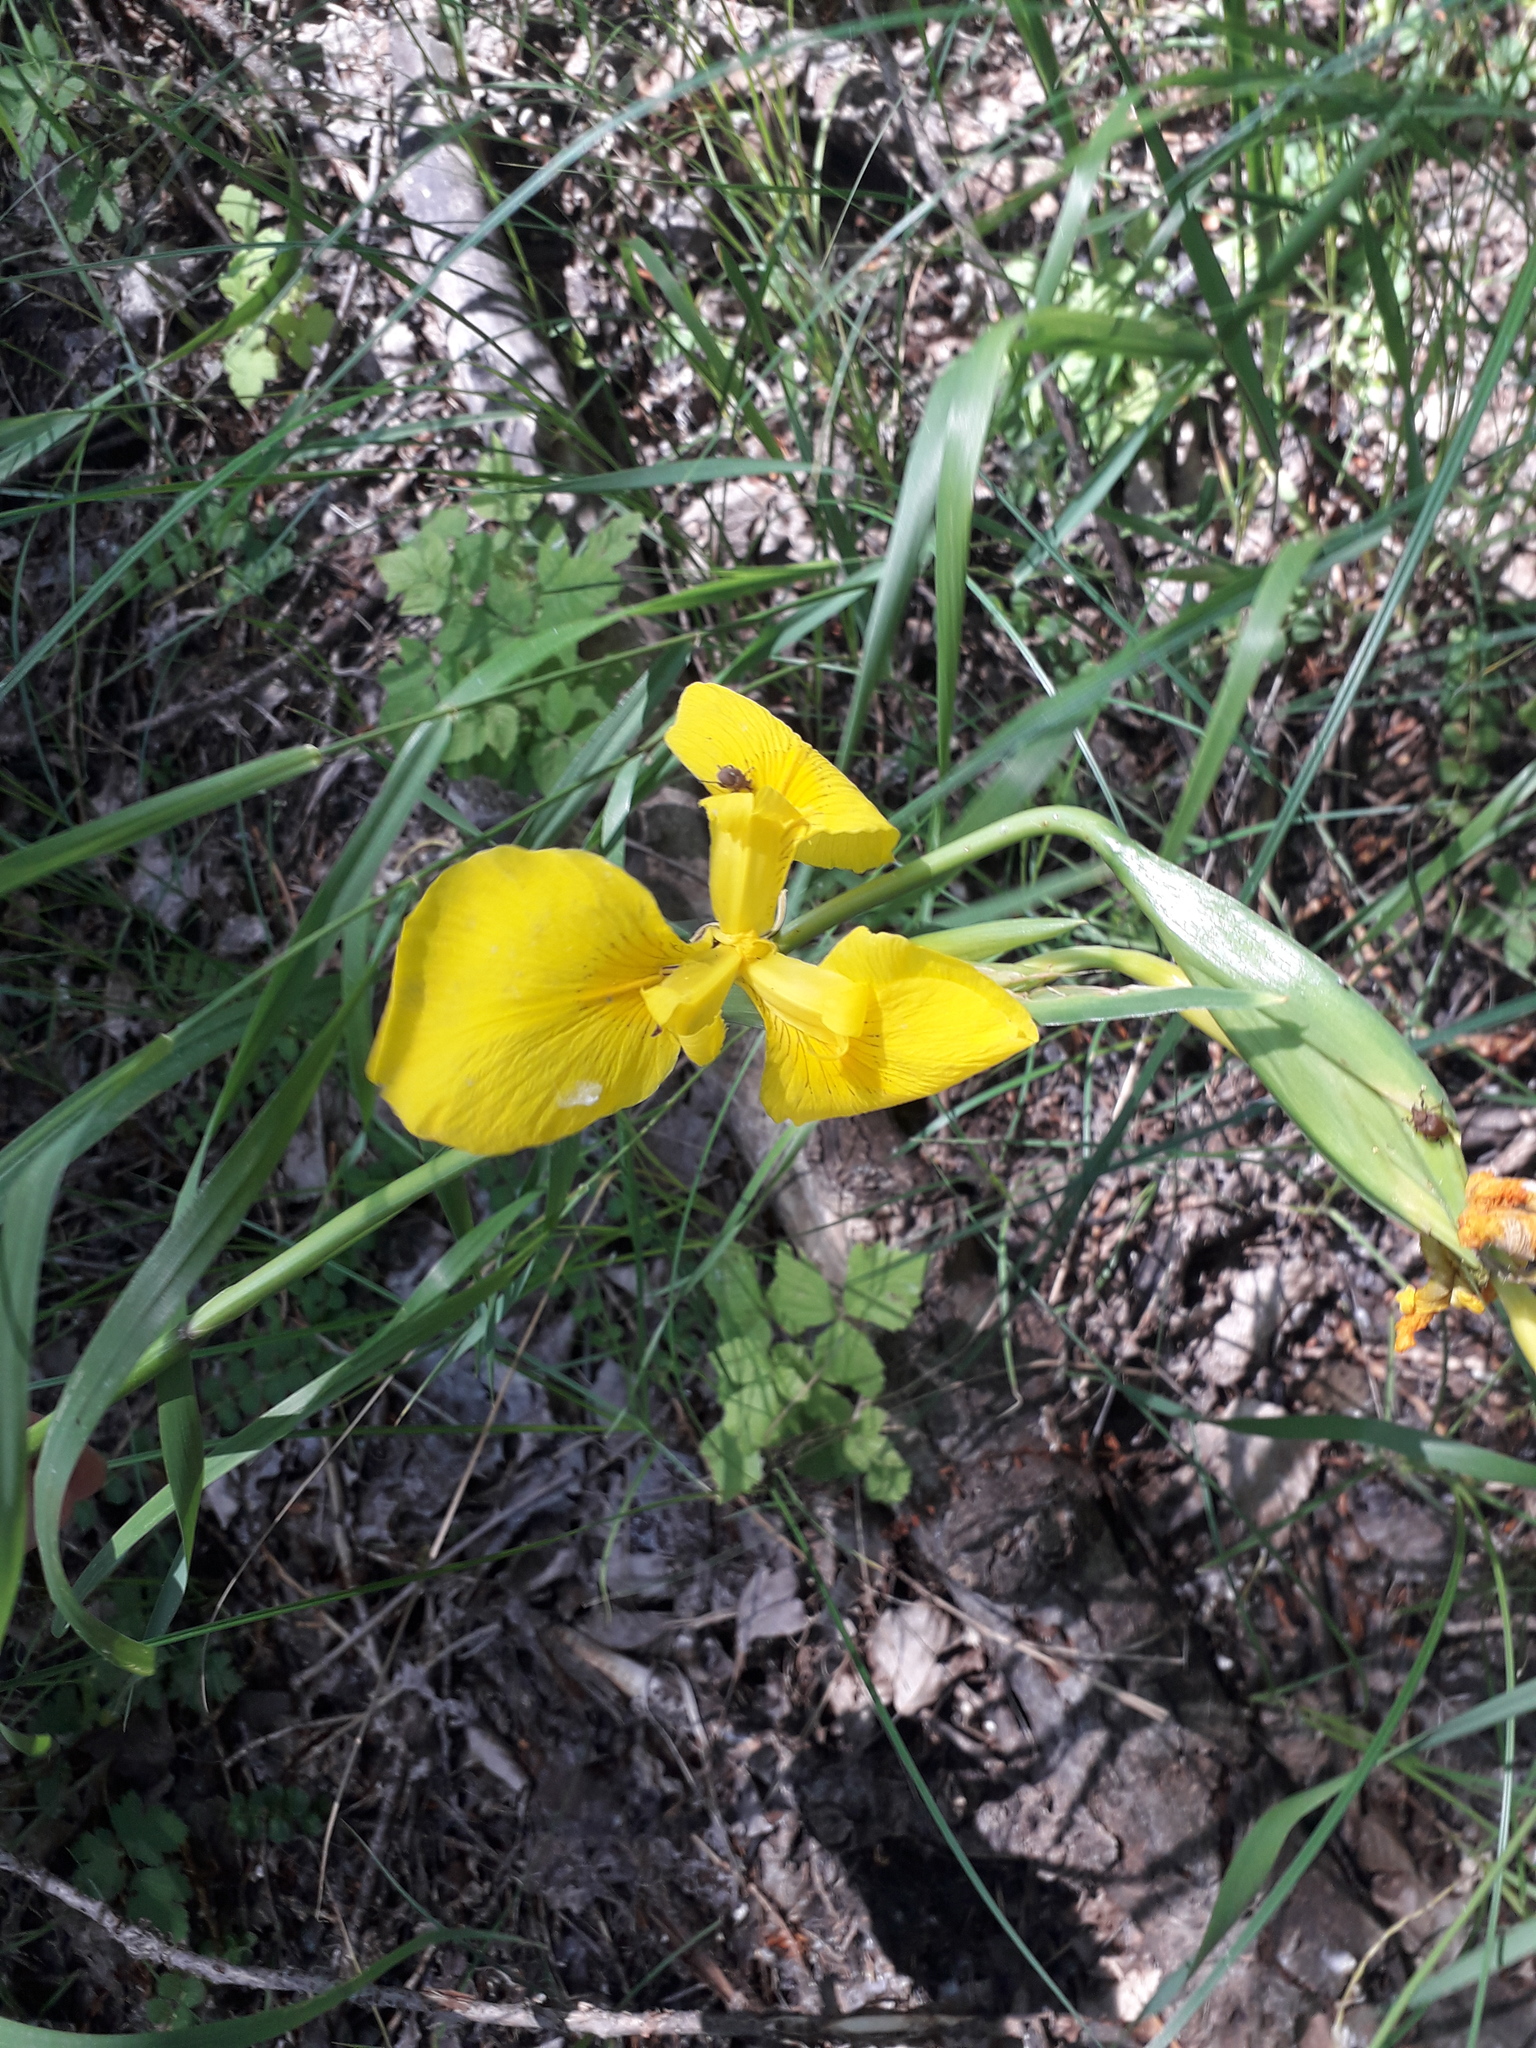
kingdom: Plantae
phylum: Tracheophyta
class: Liliopsida
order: Asparagales
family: Iridaceae
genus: Iris
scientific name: Iris pseudacorus
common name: Yellow flag
